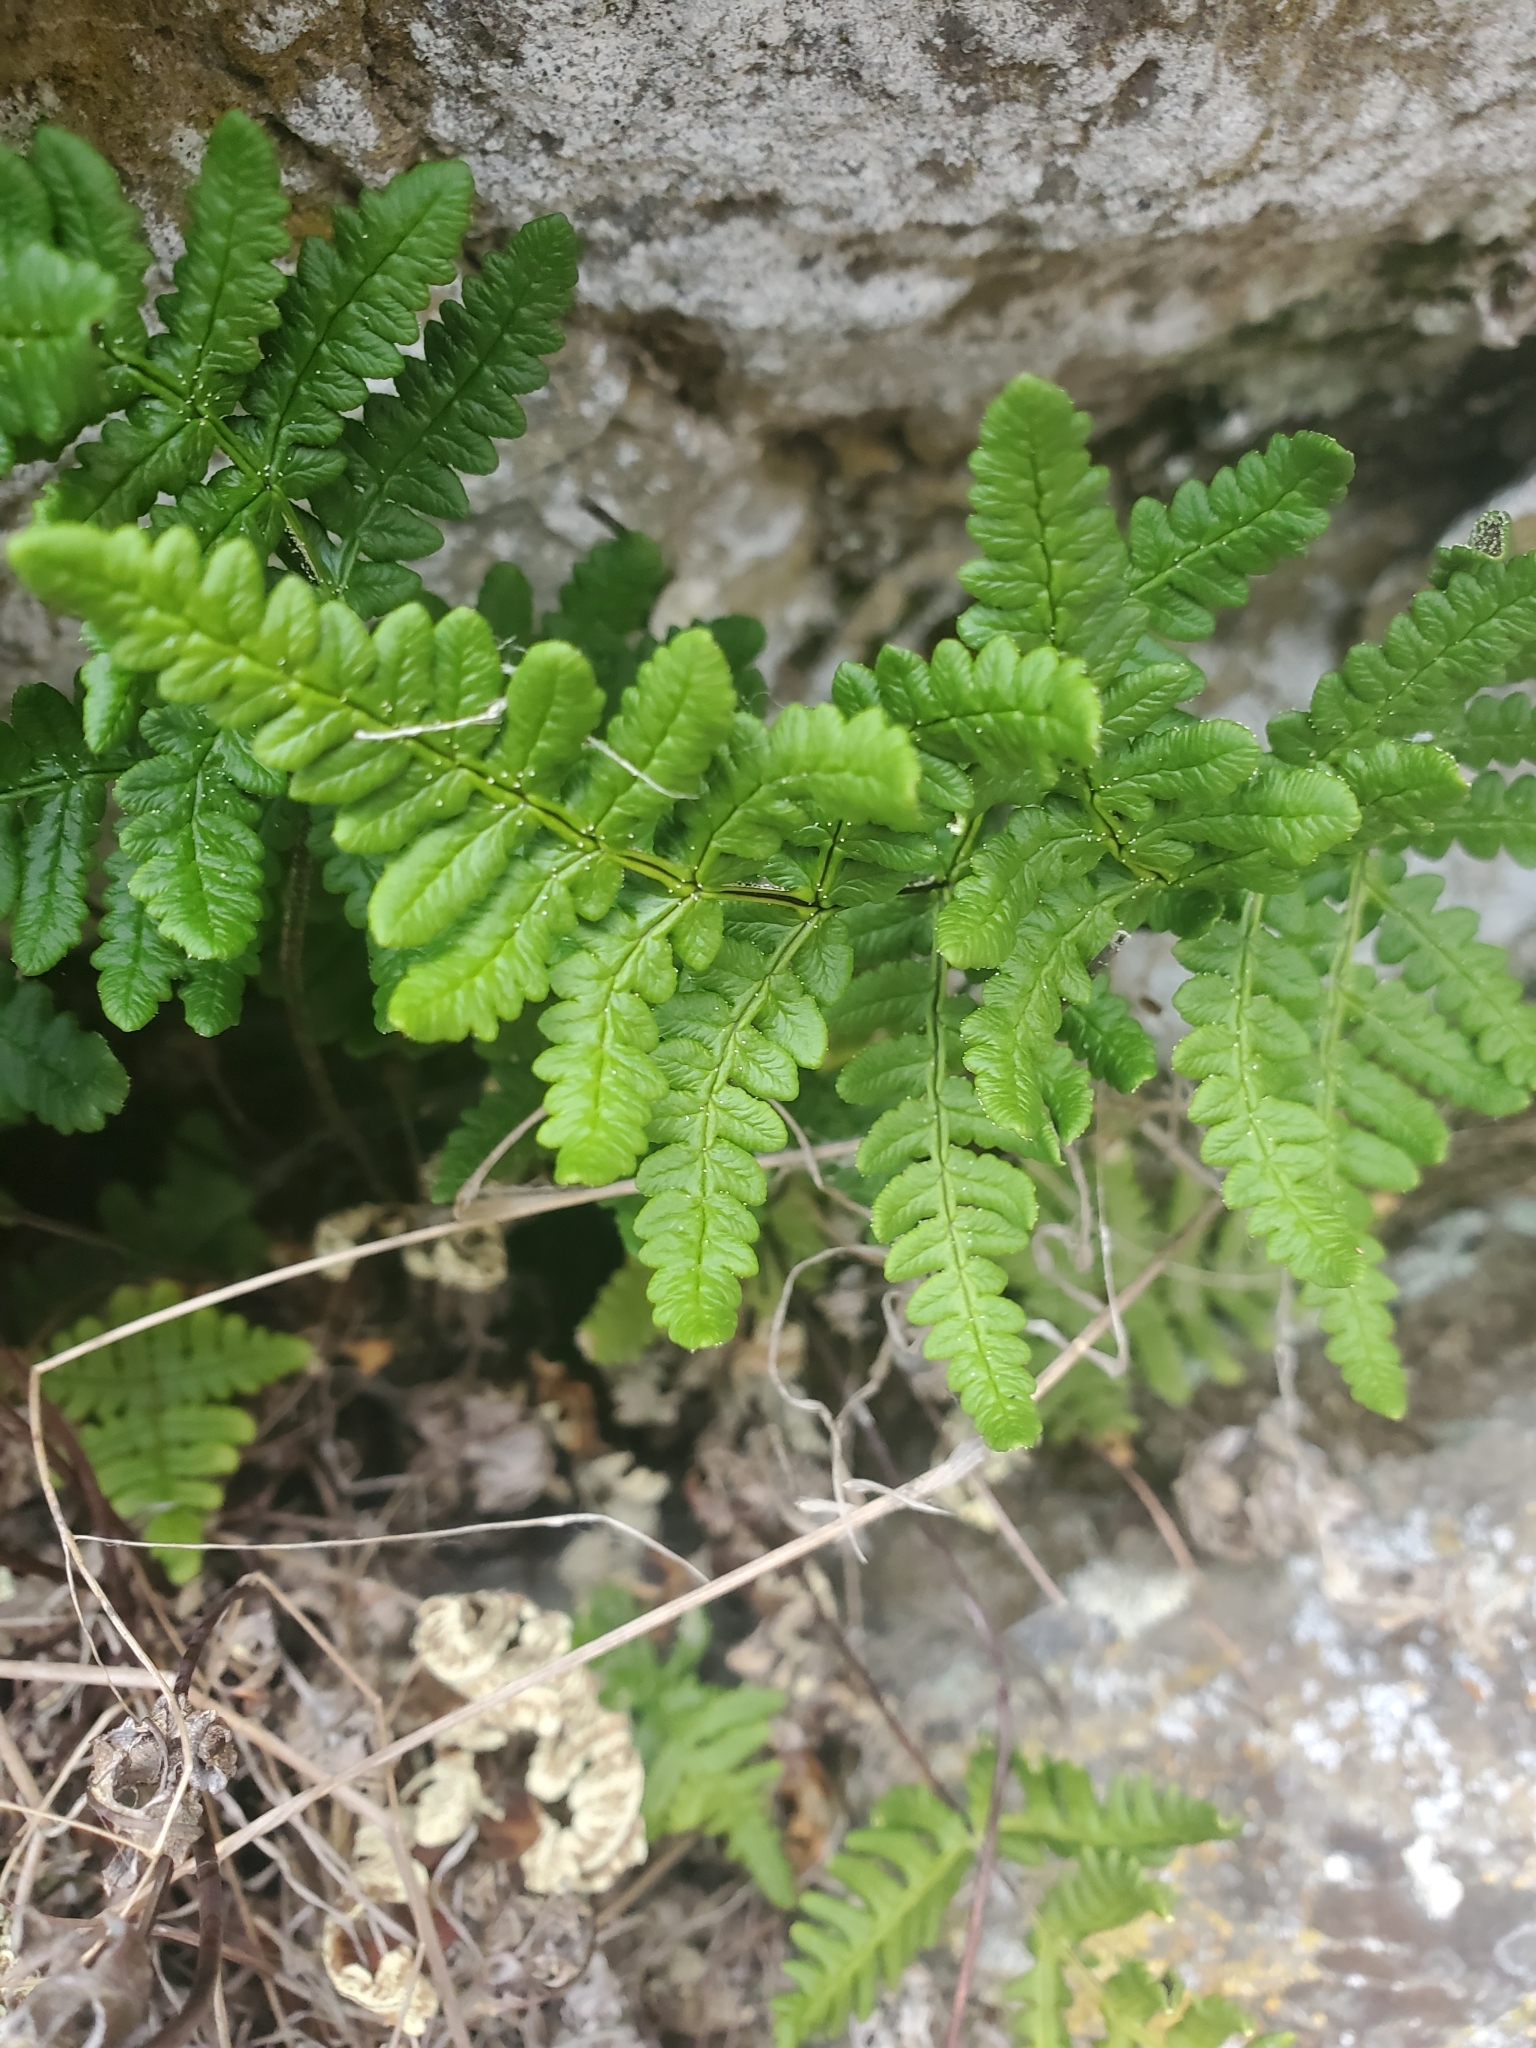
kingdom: Plantae
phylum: Tracheophyta
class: Polypodiopsida
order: Polypodiales
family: Pteridaceae
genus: Pentagramma
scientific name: Pentagramma triangularis
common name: Gold fern
